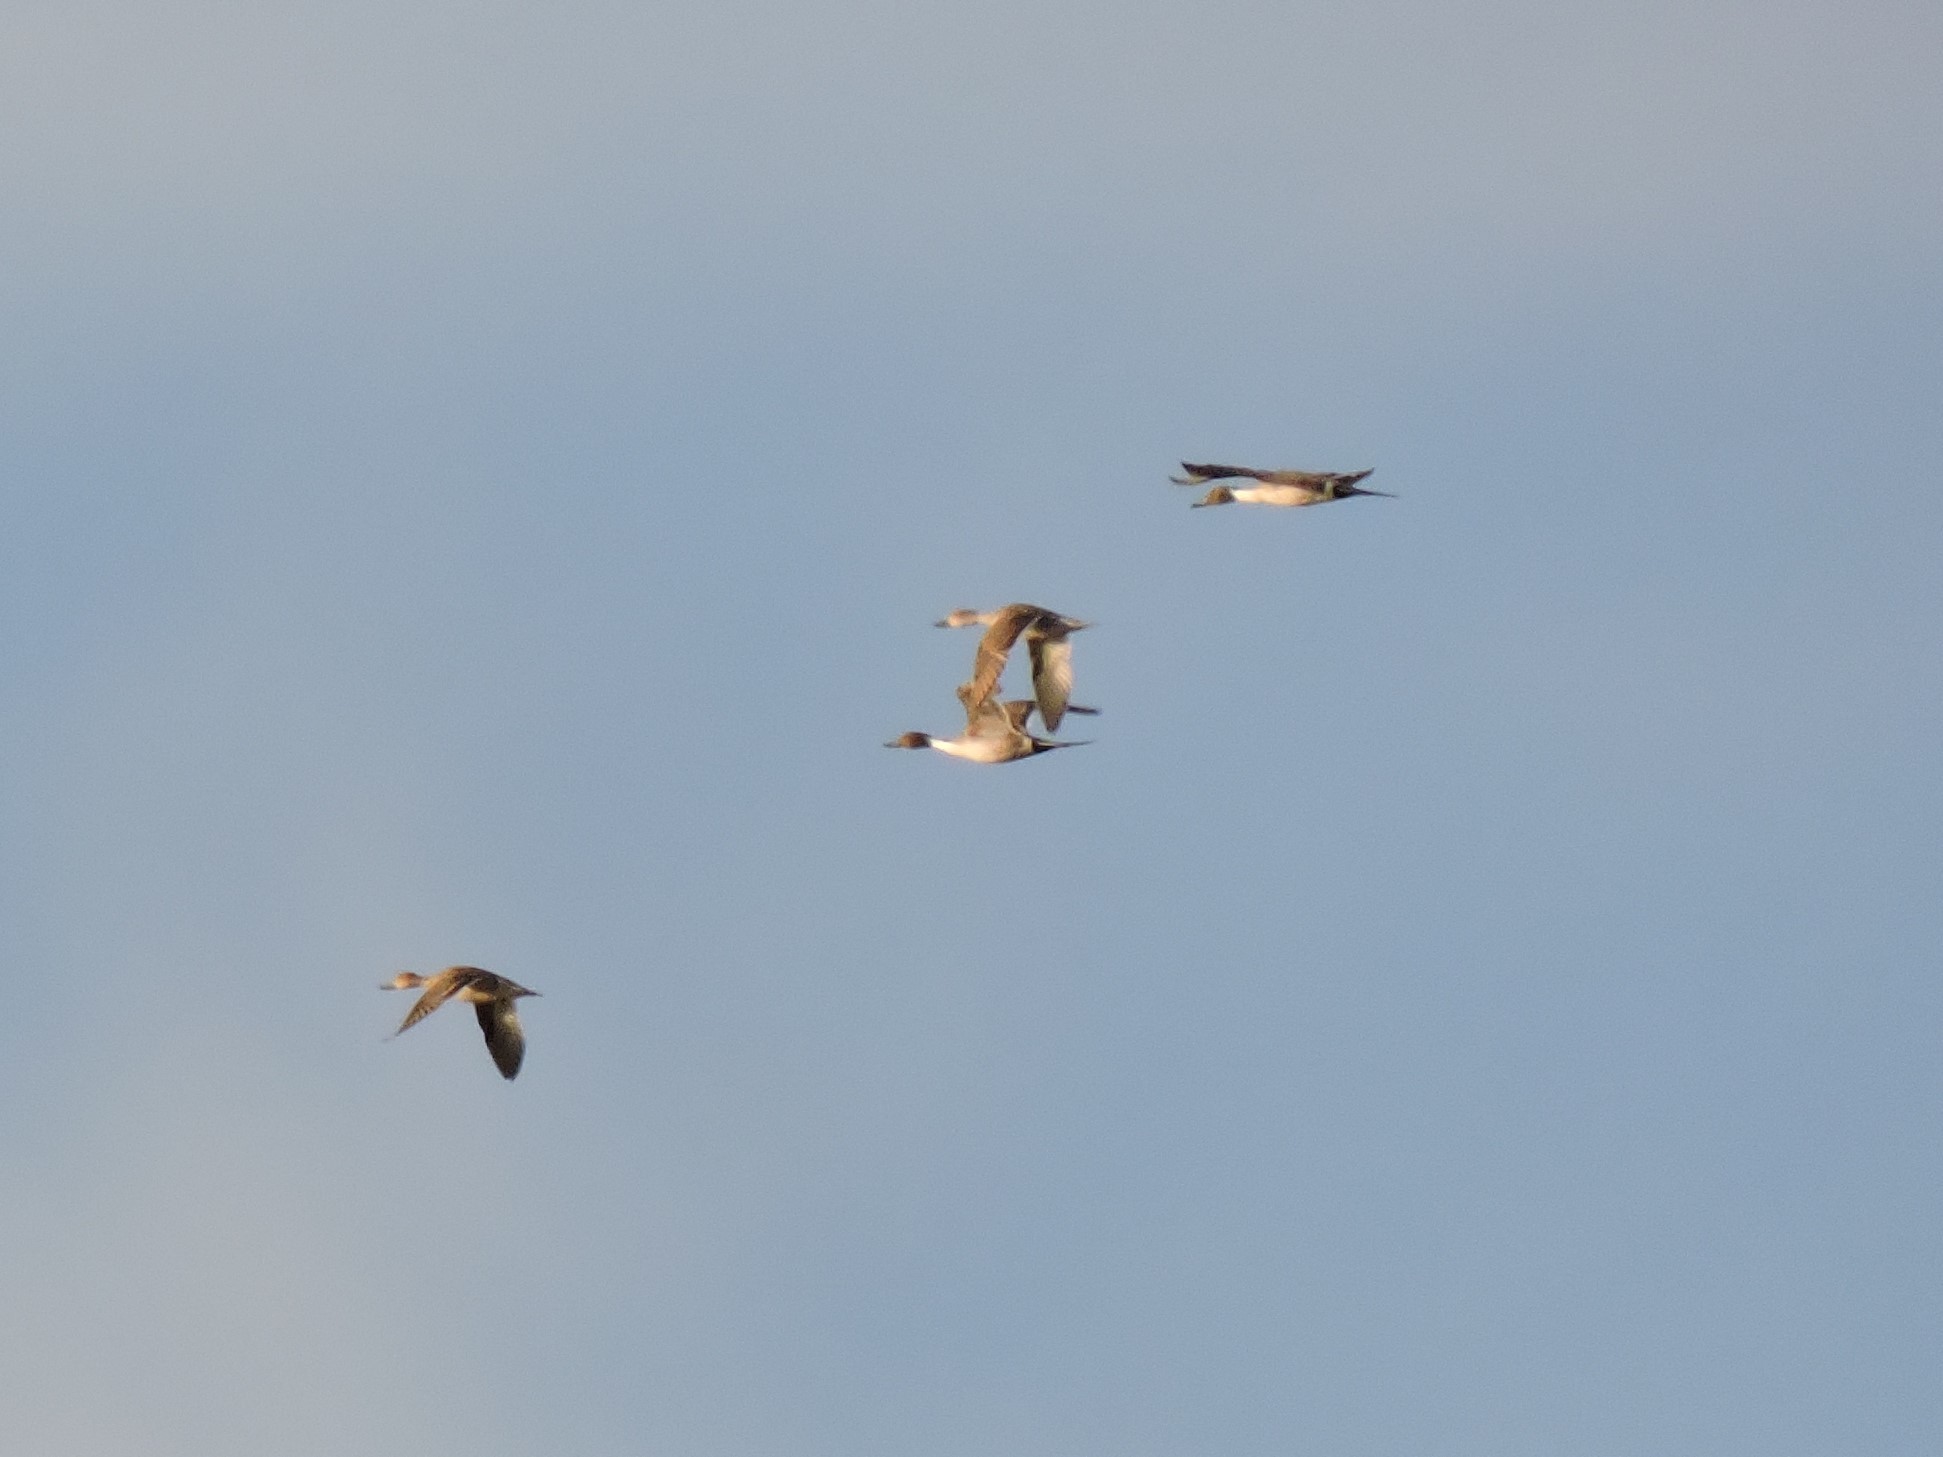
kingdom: Animalia
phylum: Chordata
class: Aves
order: Anseriformes
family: Anatidae
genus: Anas
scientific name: Anas acuta
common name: Northern pintail
